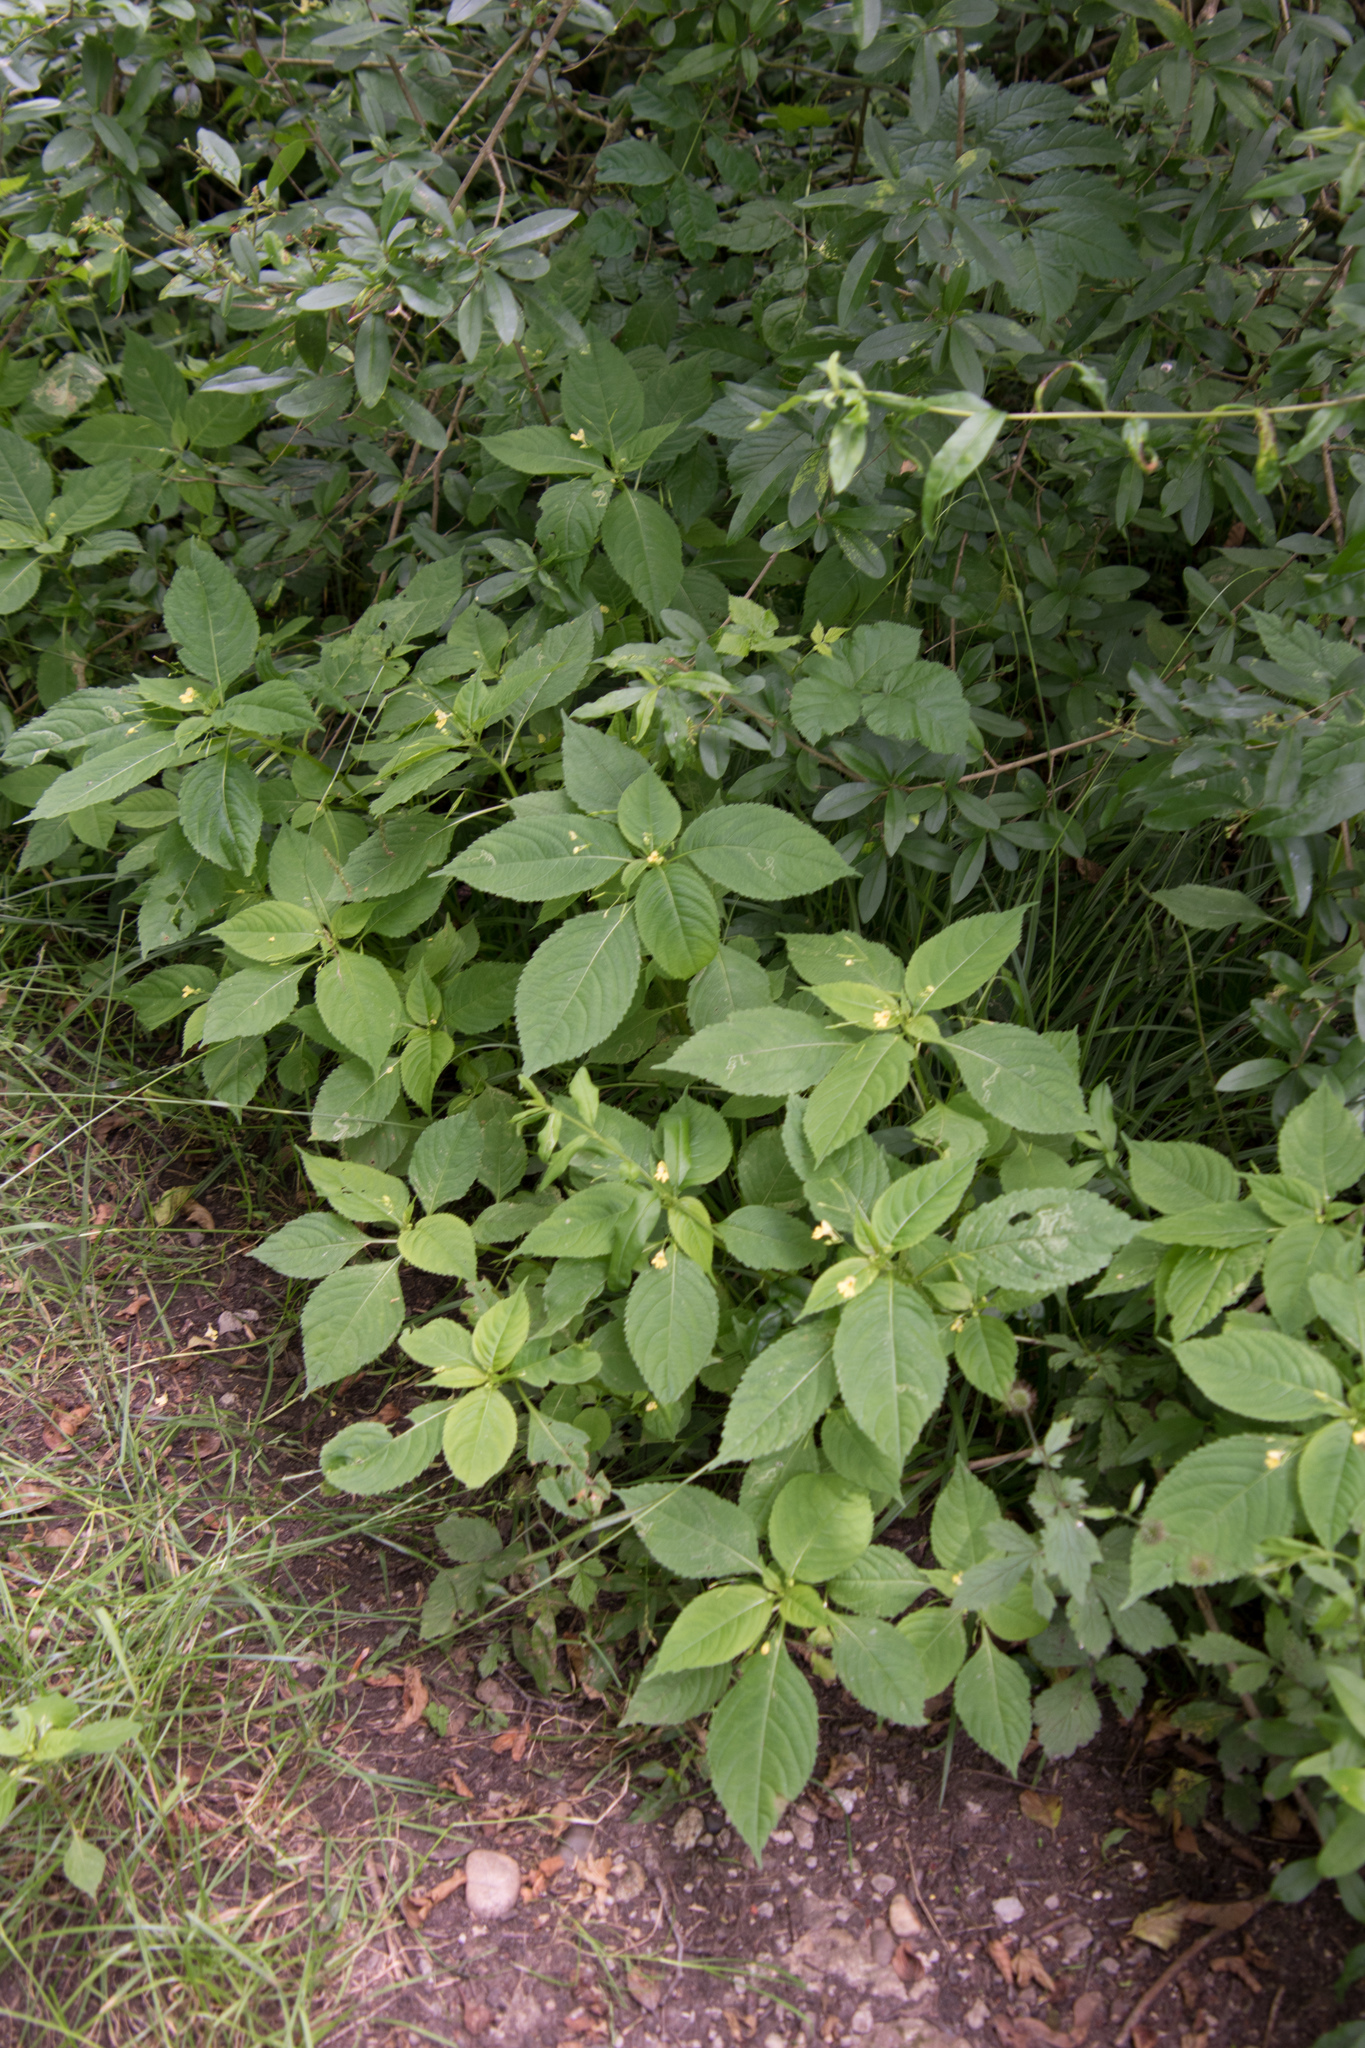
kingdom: Plantae
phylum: Tracheophyta
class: Magnoliopsida
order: Ericales
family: Balsaminaceae
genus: Impatiens
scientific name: Impatiens parviflora
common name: Small balsam
